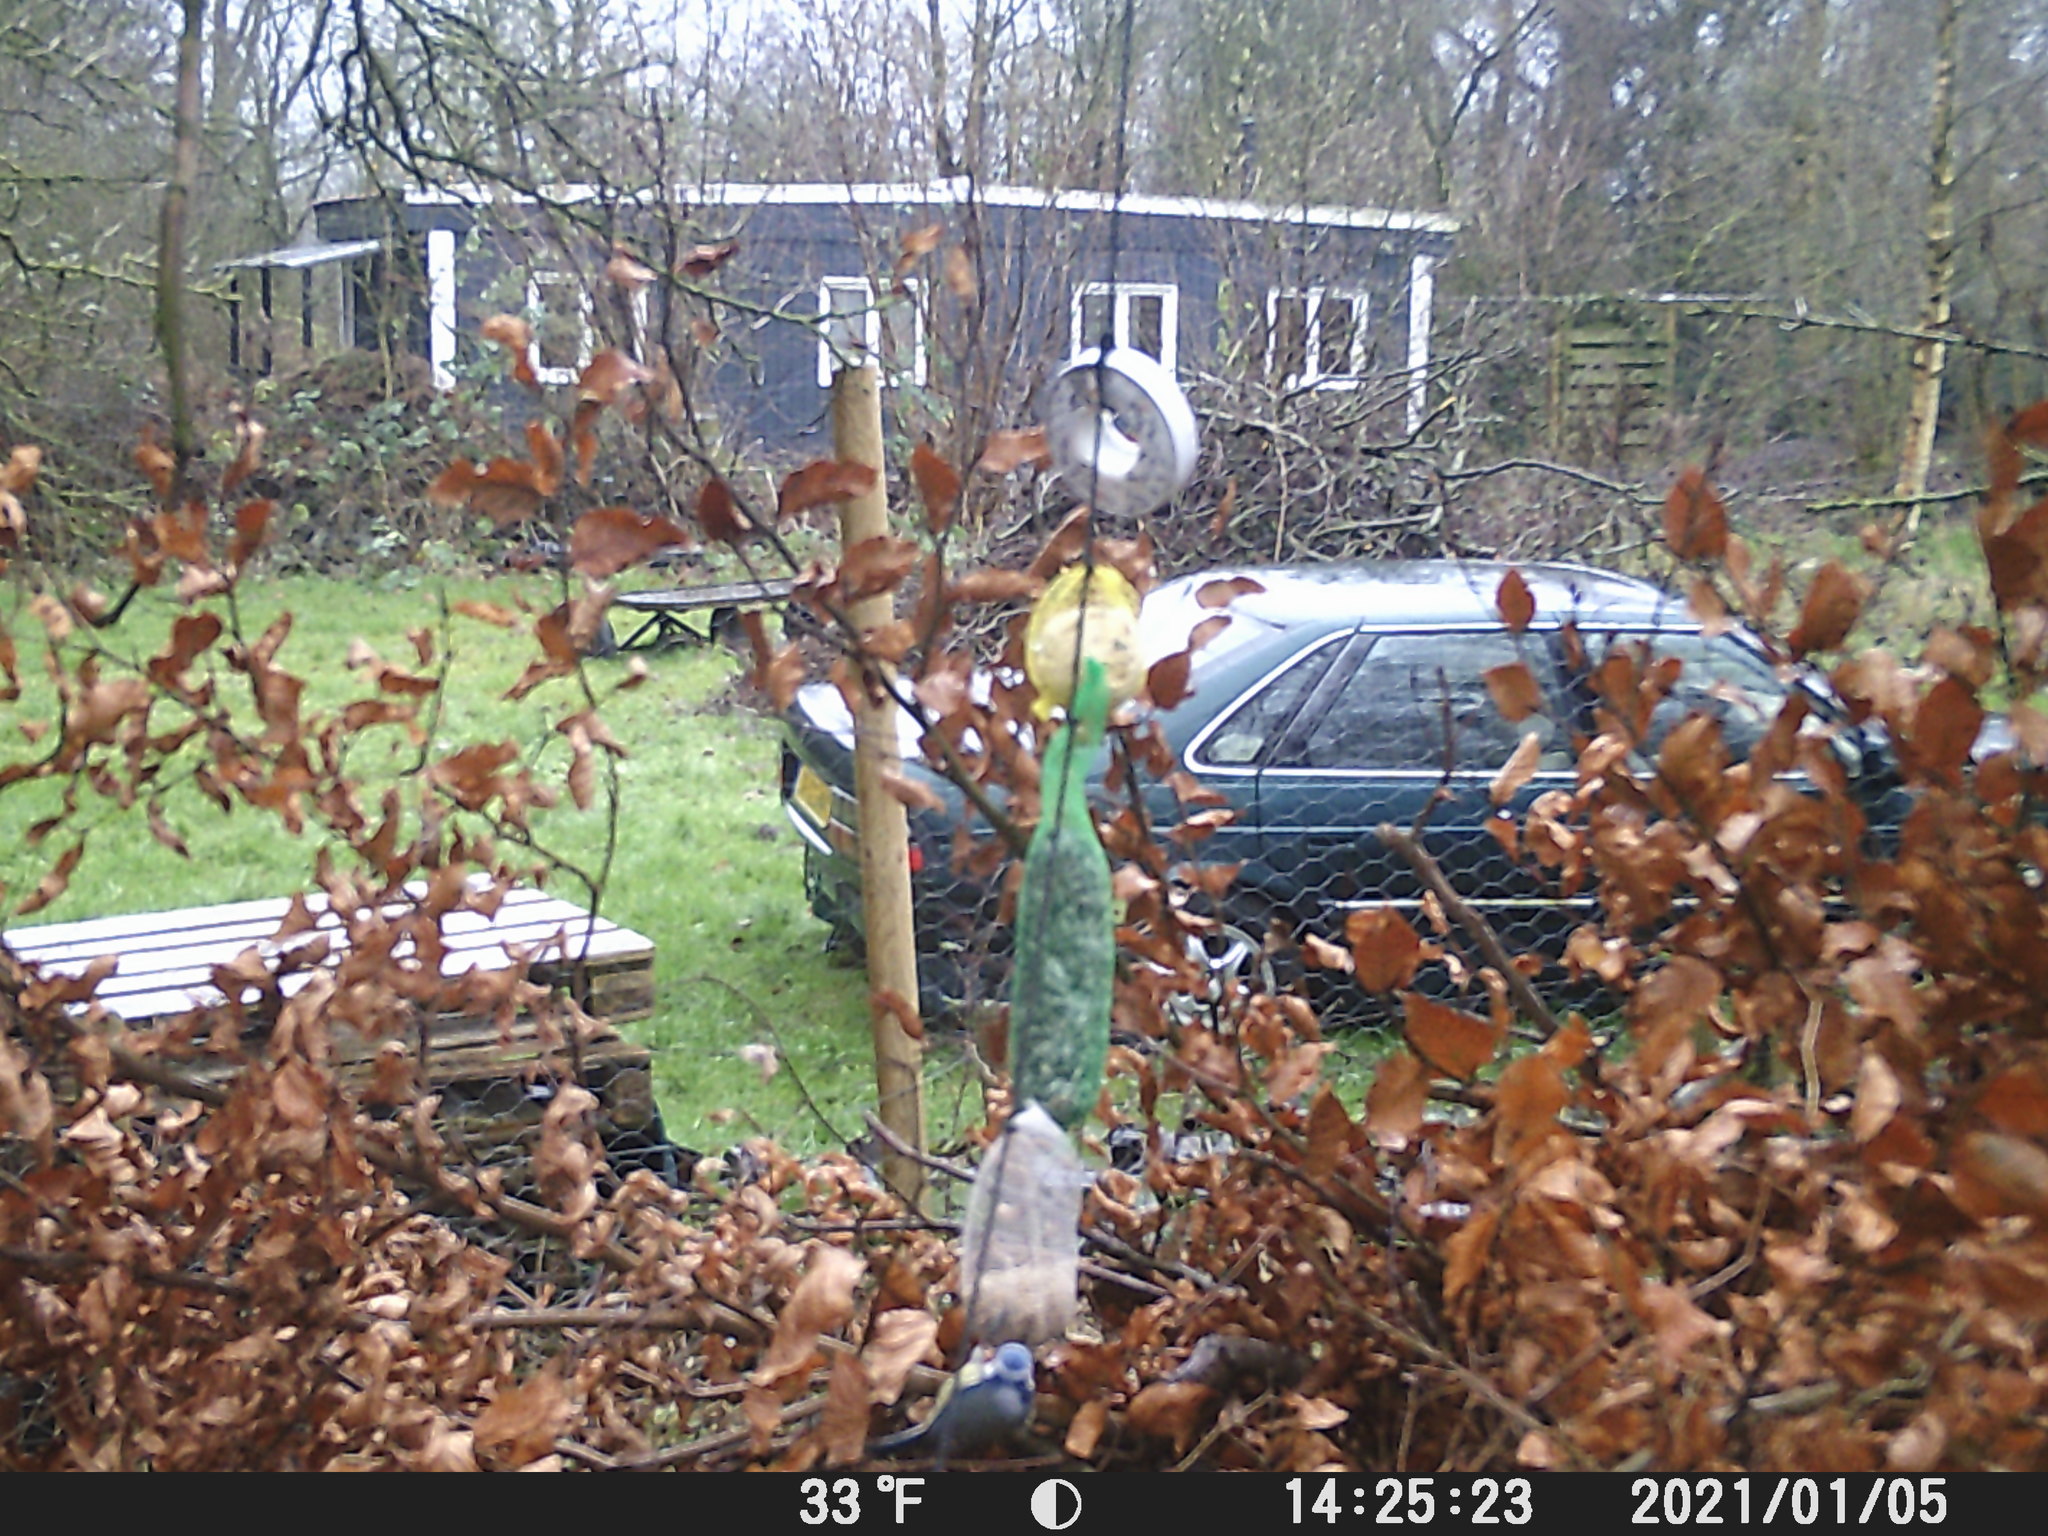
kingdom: Animalia
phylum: Chordata
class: Aves
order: Passeriformes
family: Paridae
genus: Cyanistes
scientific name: Cyanistes caeruleus
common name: Eurasian blue tit
